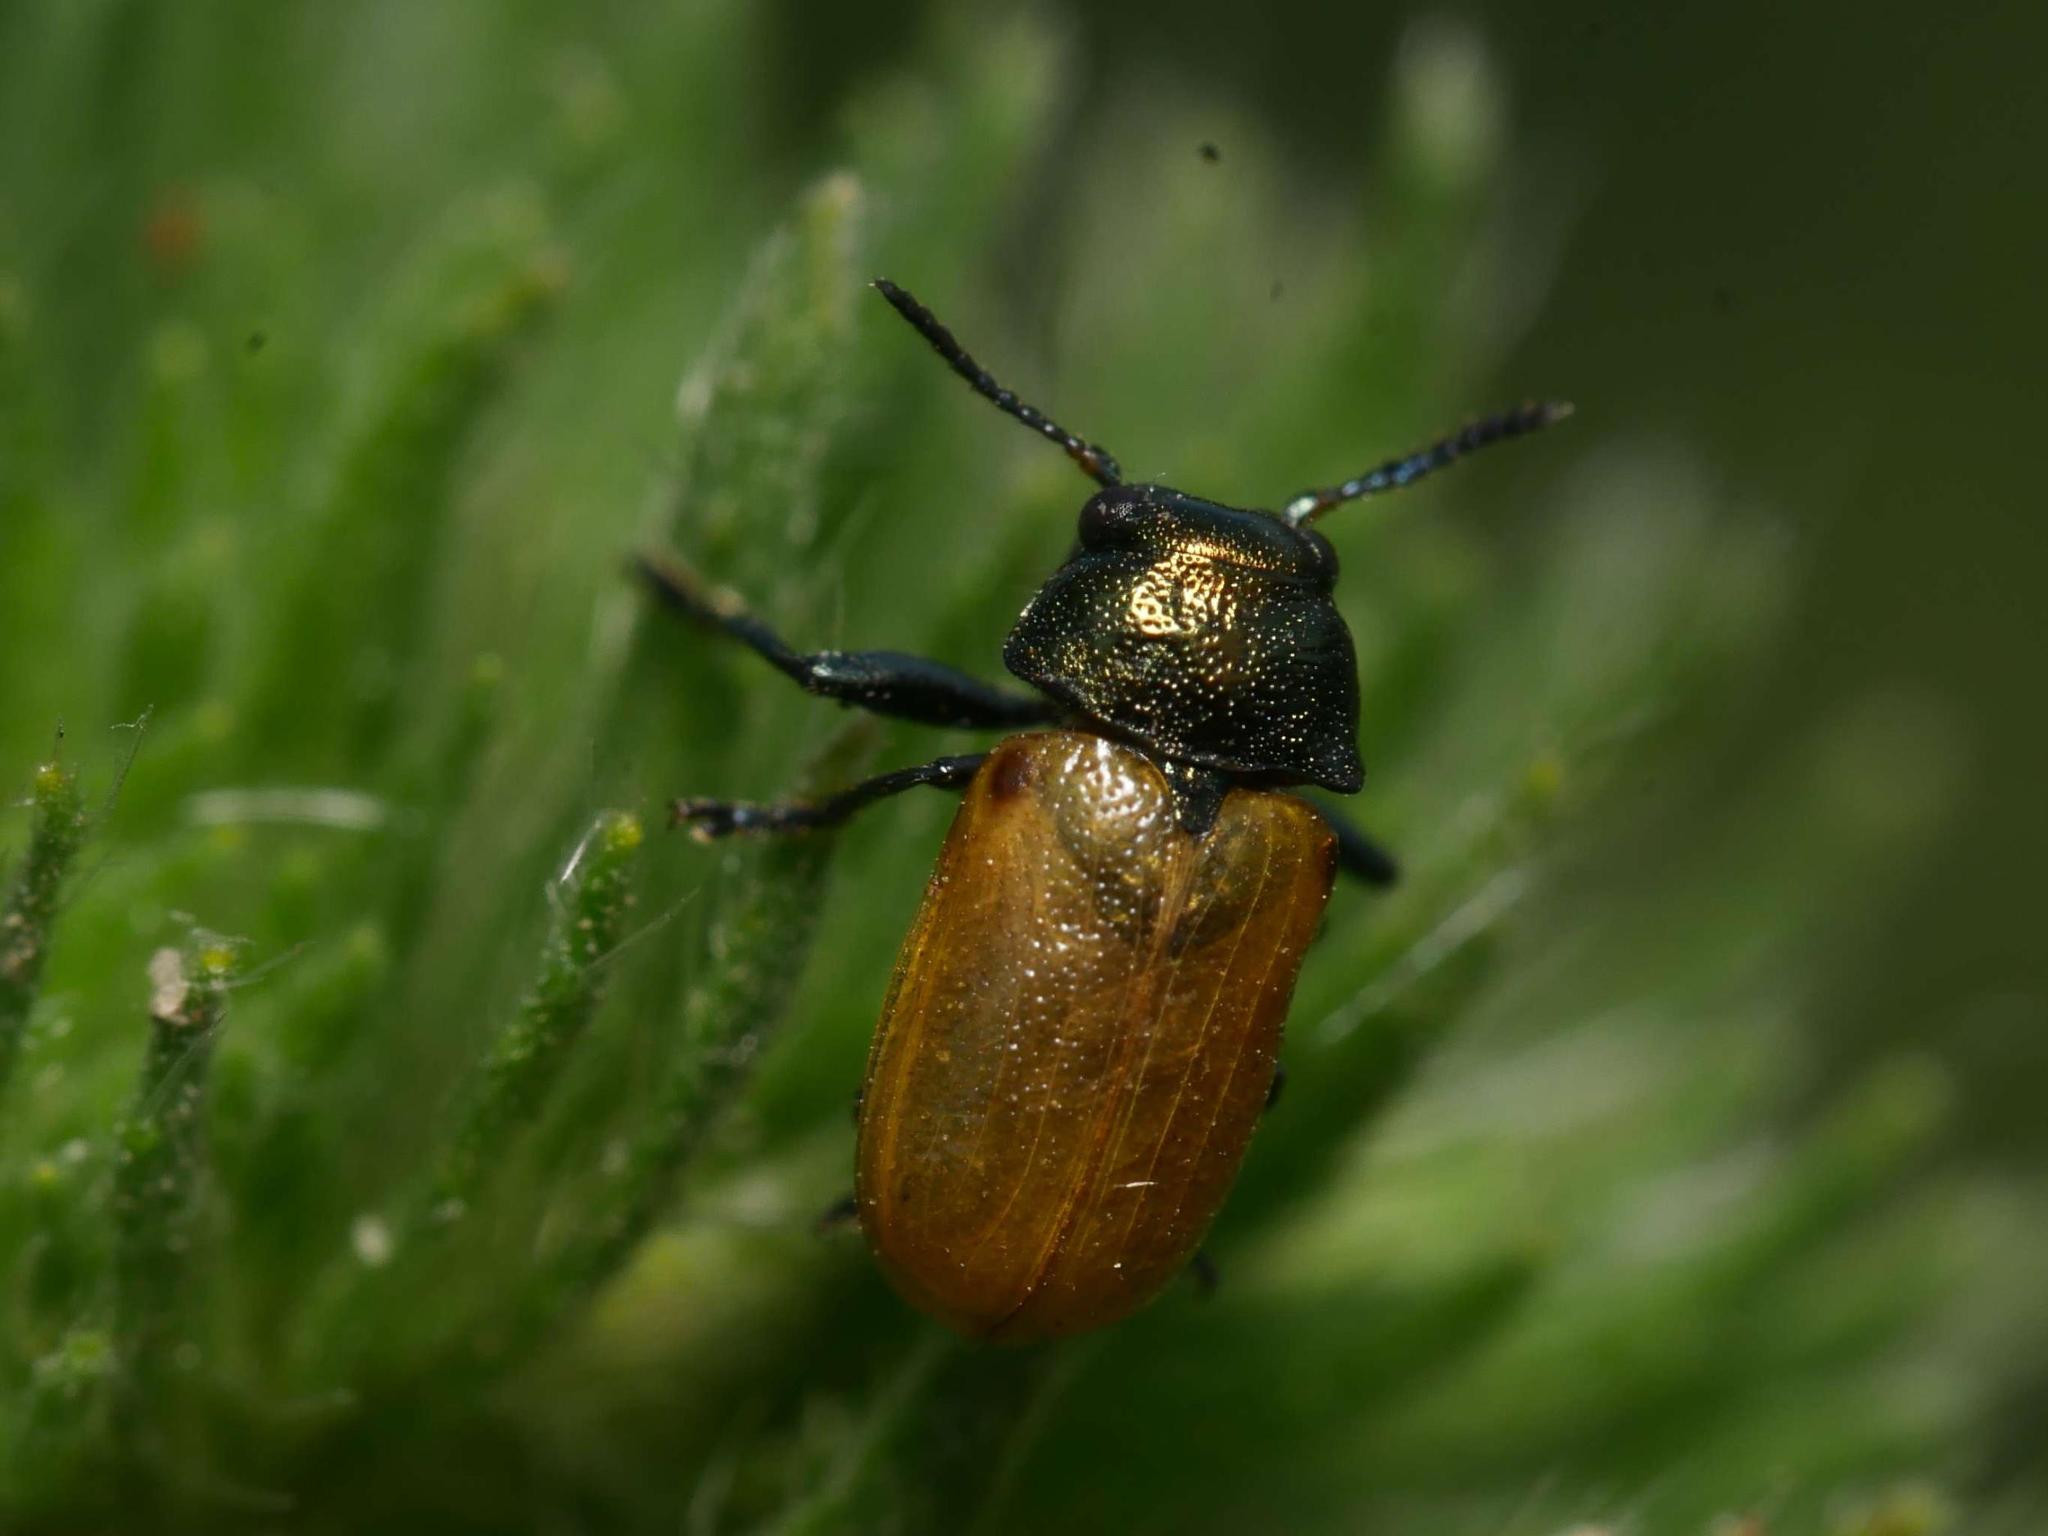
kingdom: Animalia
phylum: Arthropoda
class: Insecta
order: Coleoptera
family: Chrysomelidae
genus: Labidostomis
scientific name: Labidostomis longimana
